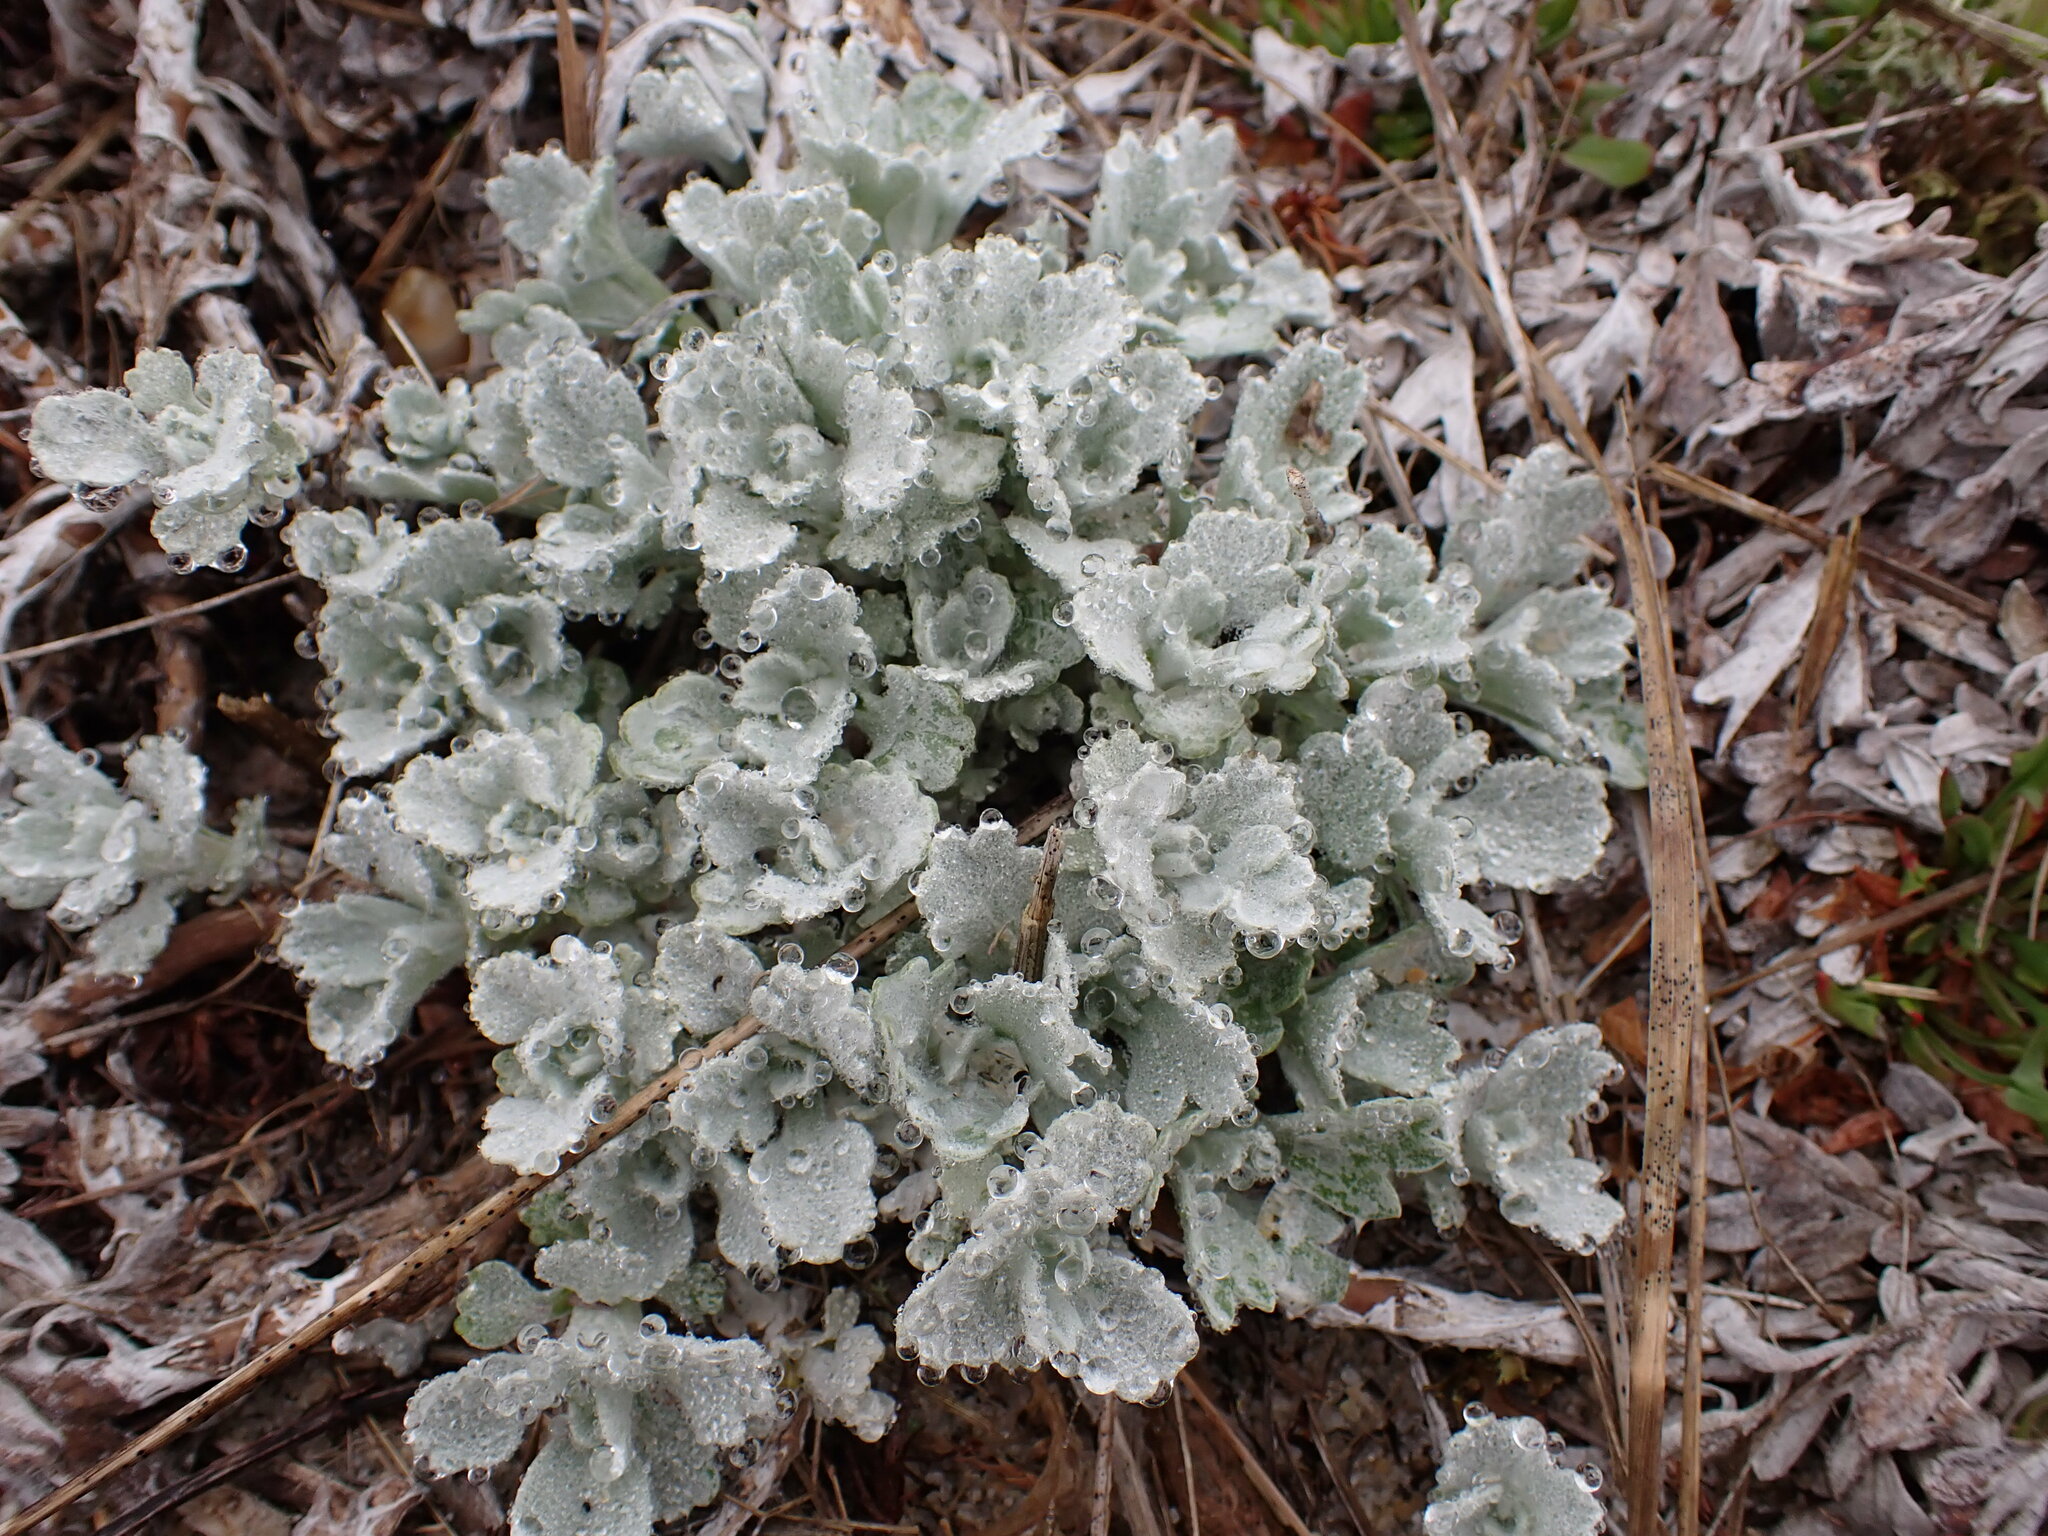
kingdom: Plantae
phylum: Tracheophyta
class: Magnoliopsida
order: Asterales
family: Asteraceae
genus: Artemisia
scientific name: Artemisia stelleriana
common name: Beach wormwood
